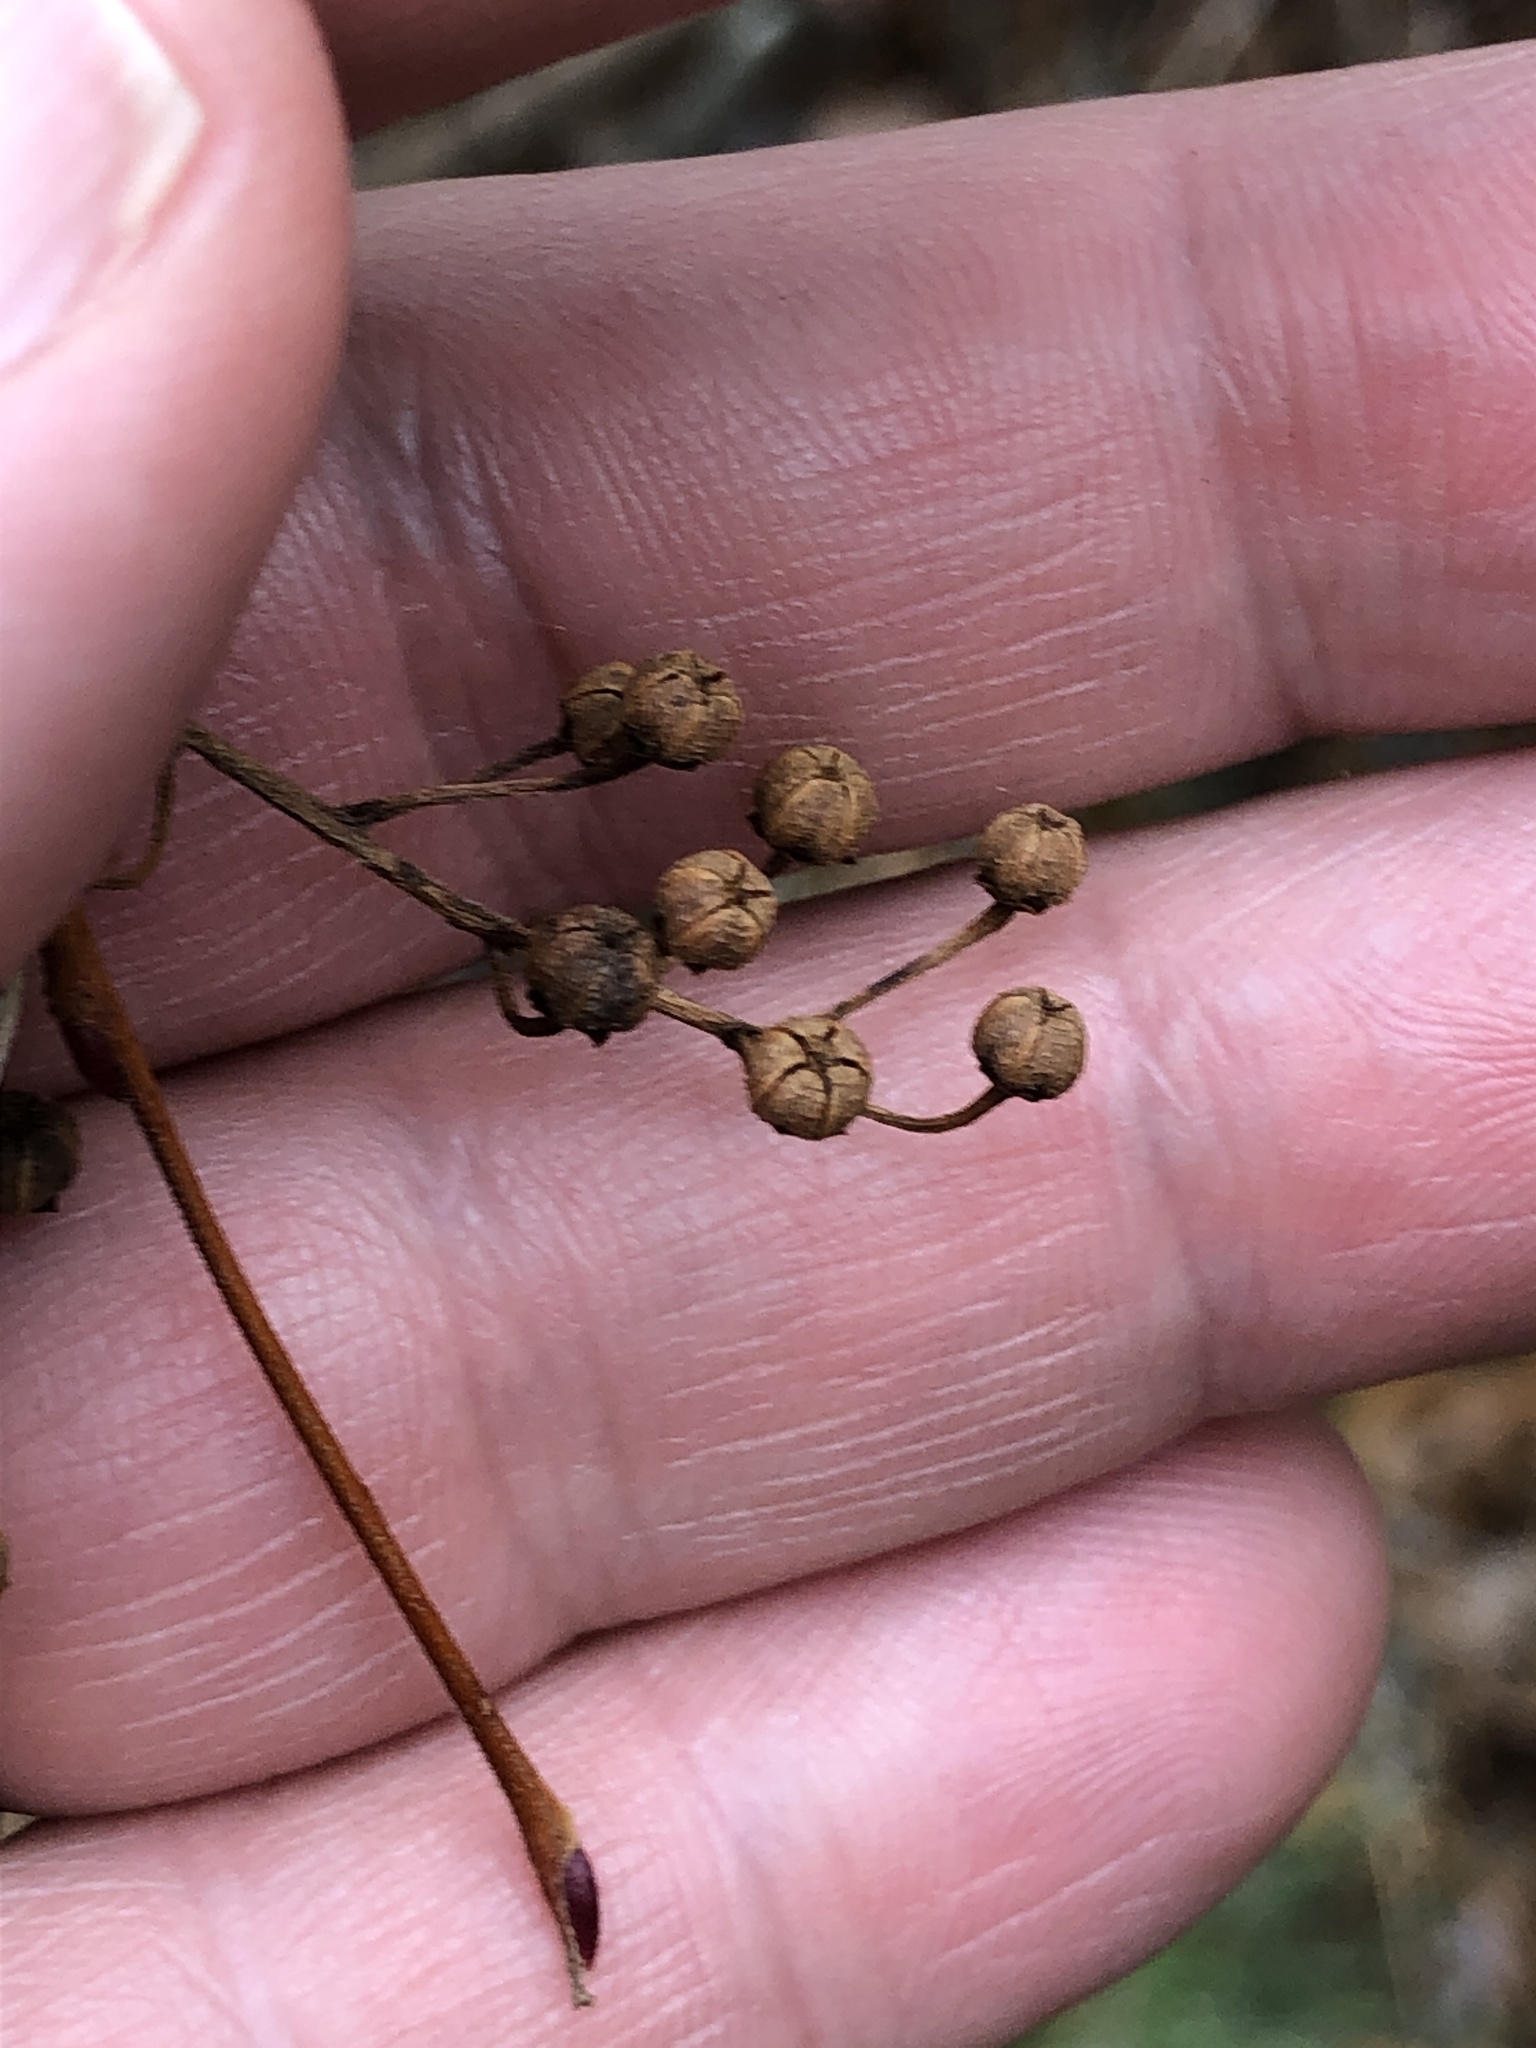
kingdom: Plantae
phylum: Tracheophyta
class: Magnoliopsida
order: Ericales
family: Ericaceae
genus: Lyonia
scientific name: Lyonia ligustrina
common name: Maleberry
